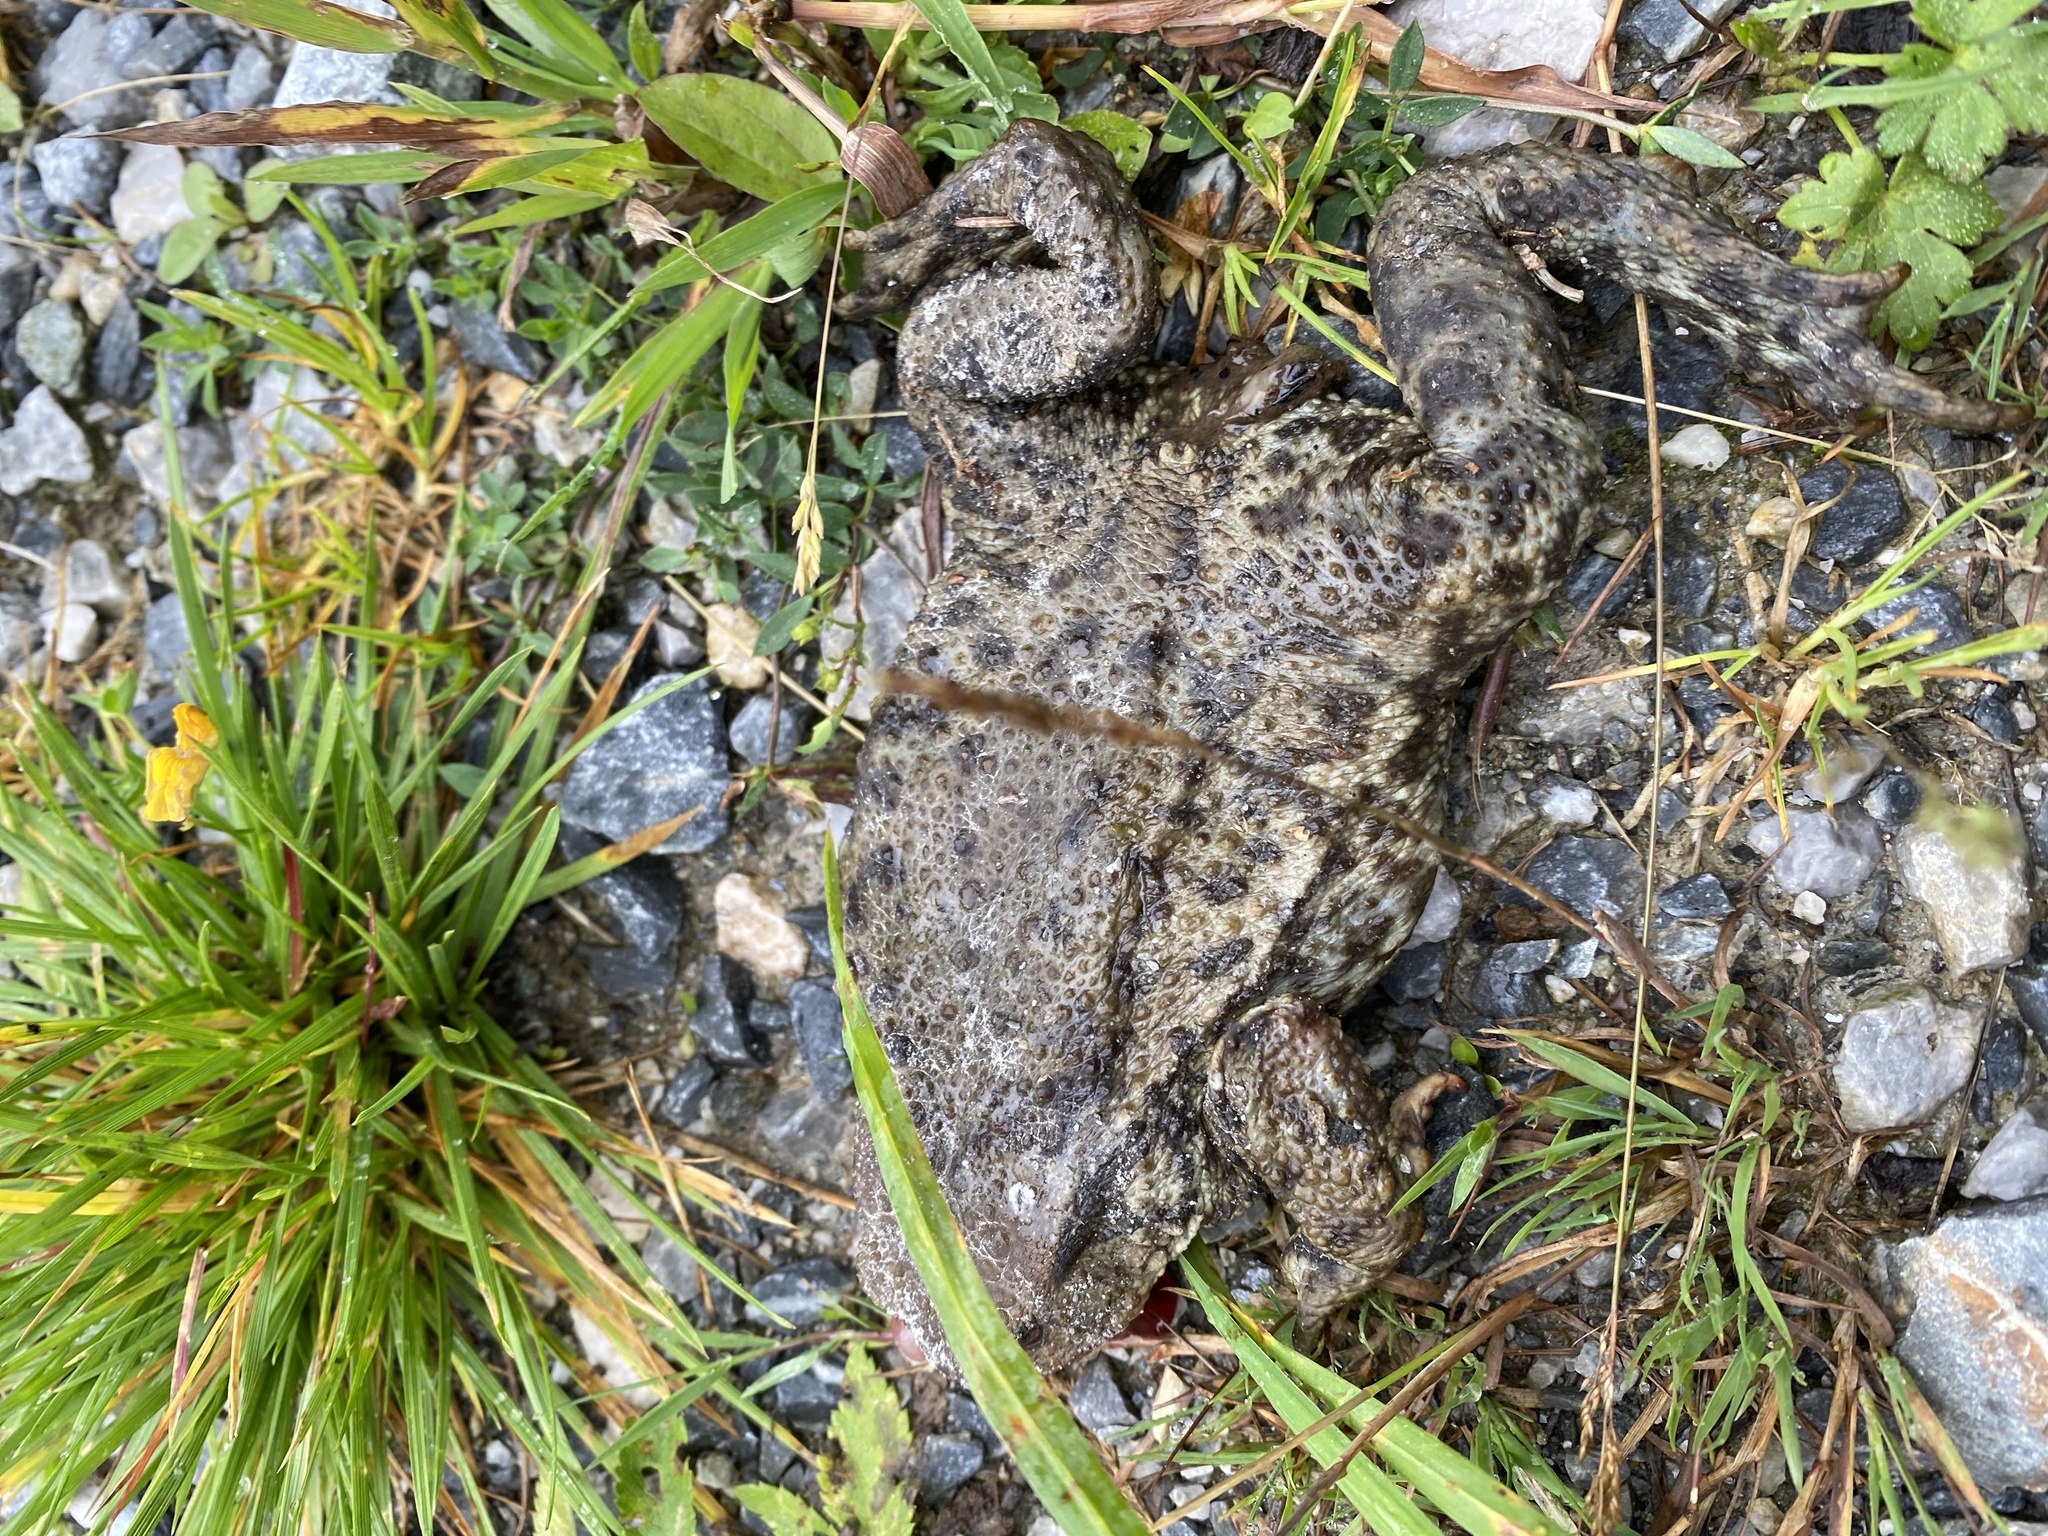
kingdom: Animalia
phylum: Chordata
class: Amphibia
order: Anura
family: Bufonidae
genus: Bufo
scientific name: Bufo bufo
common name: Common toad
